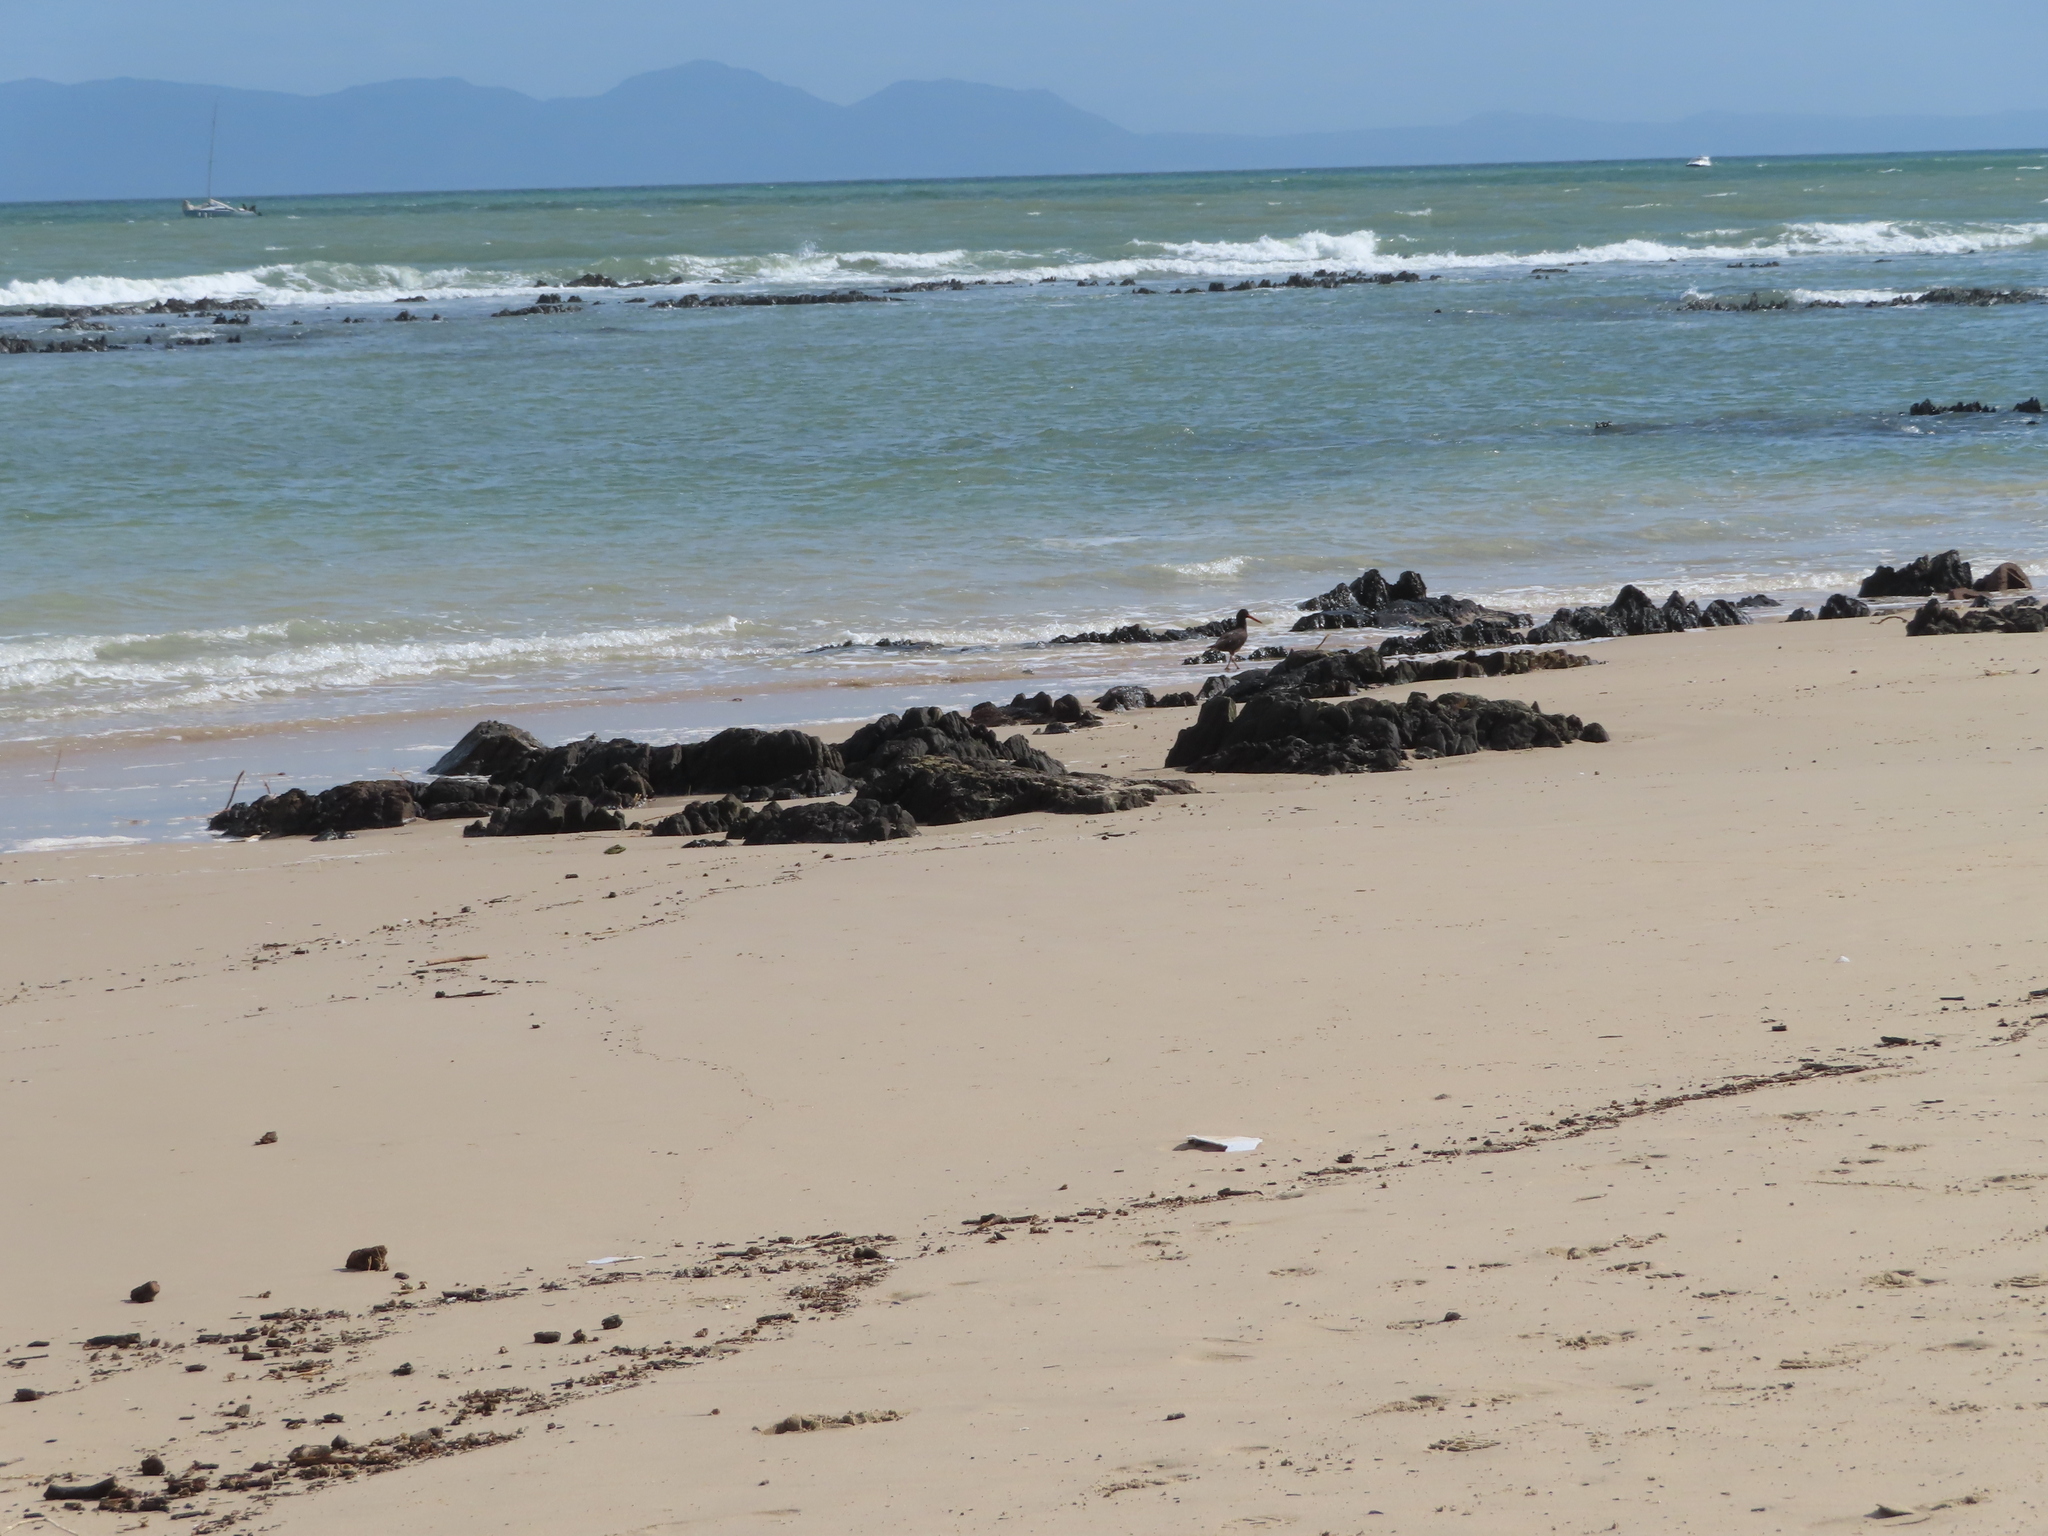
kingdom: Animalia
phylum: Chordata
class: Aves
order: Charadriiformes
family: Haematopodidae
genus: Haematopus
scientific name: Haematopus moquini
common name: African oystercatcher
